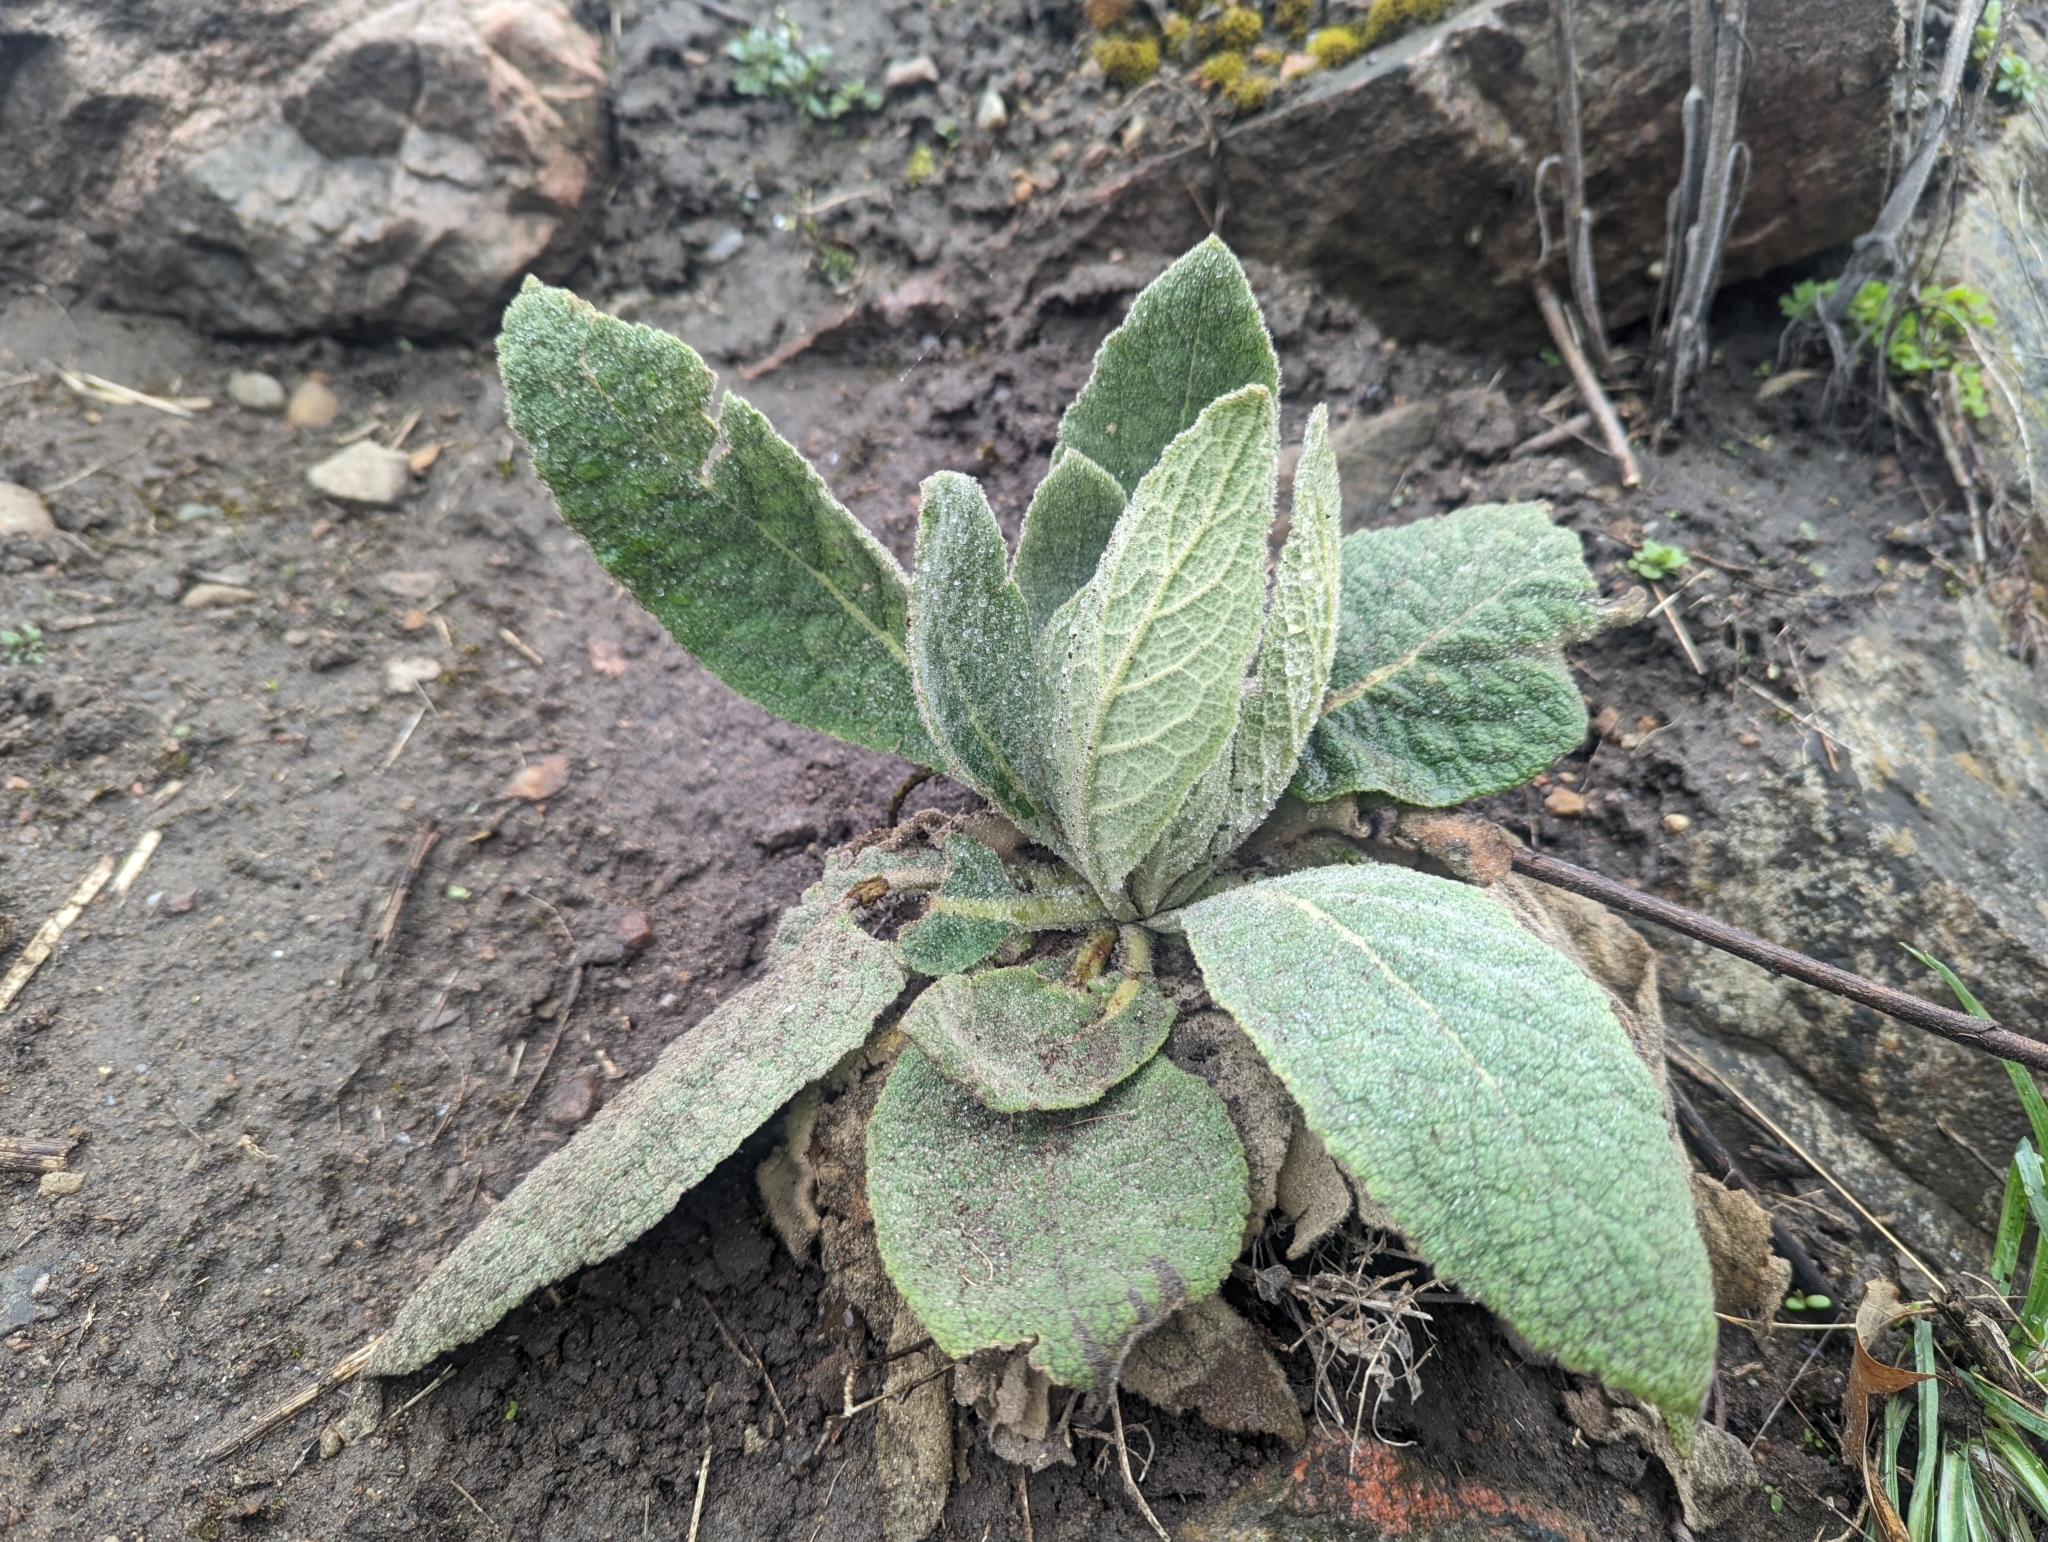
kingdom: Plantae
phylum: Tracheophyta
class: Magnoliopsida
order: Lamiales
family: Scrophulariaceae
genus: Verbascum
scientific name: Verbascum thapsus
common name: Common mullein
